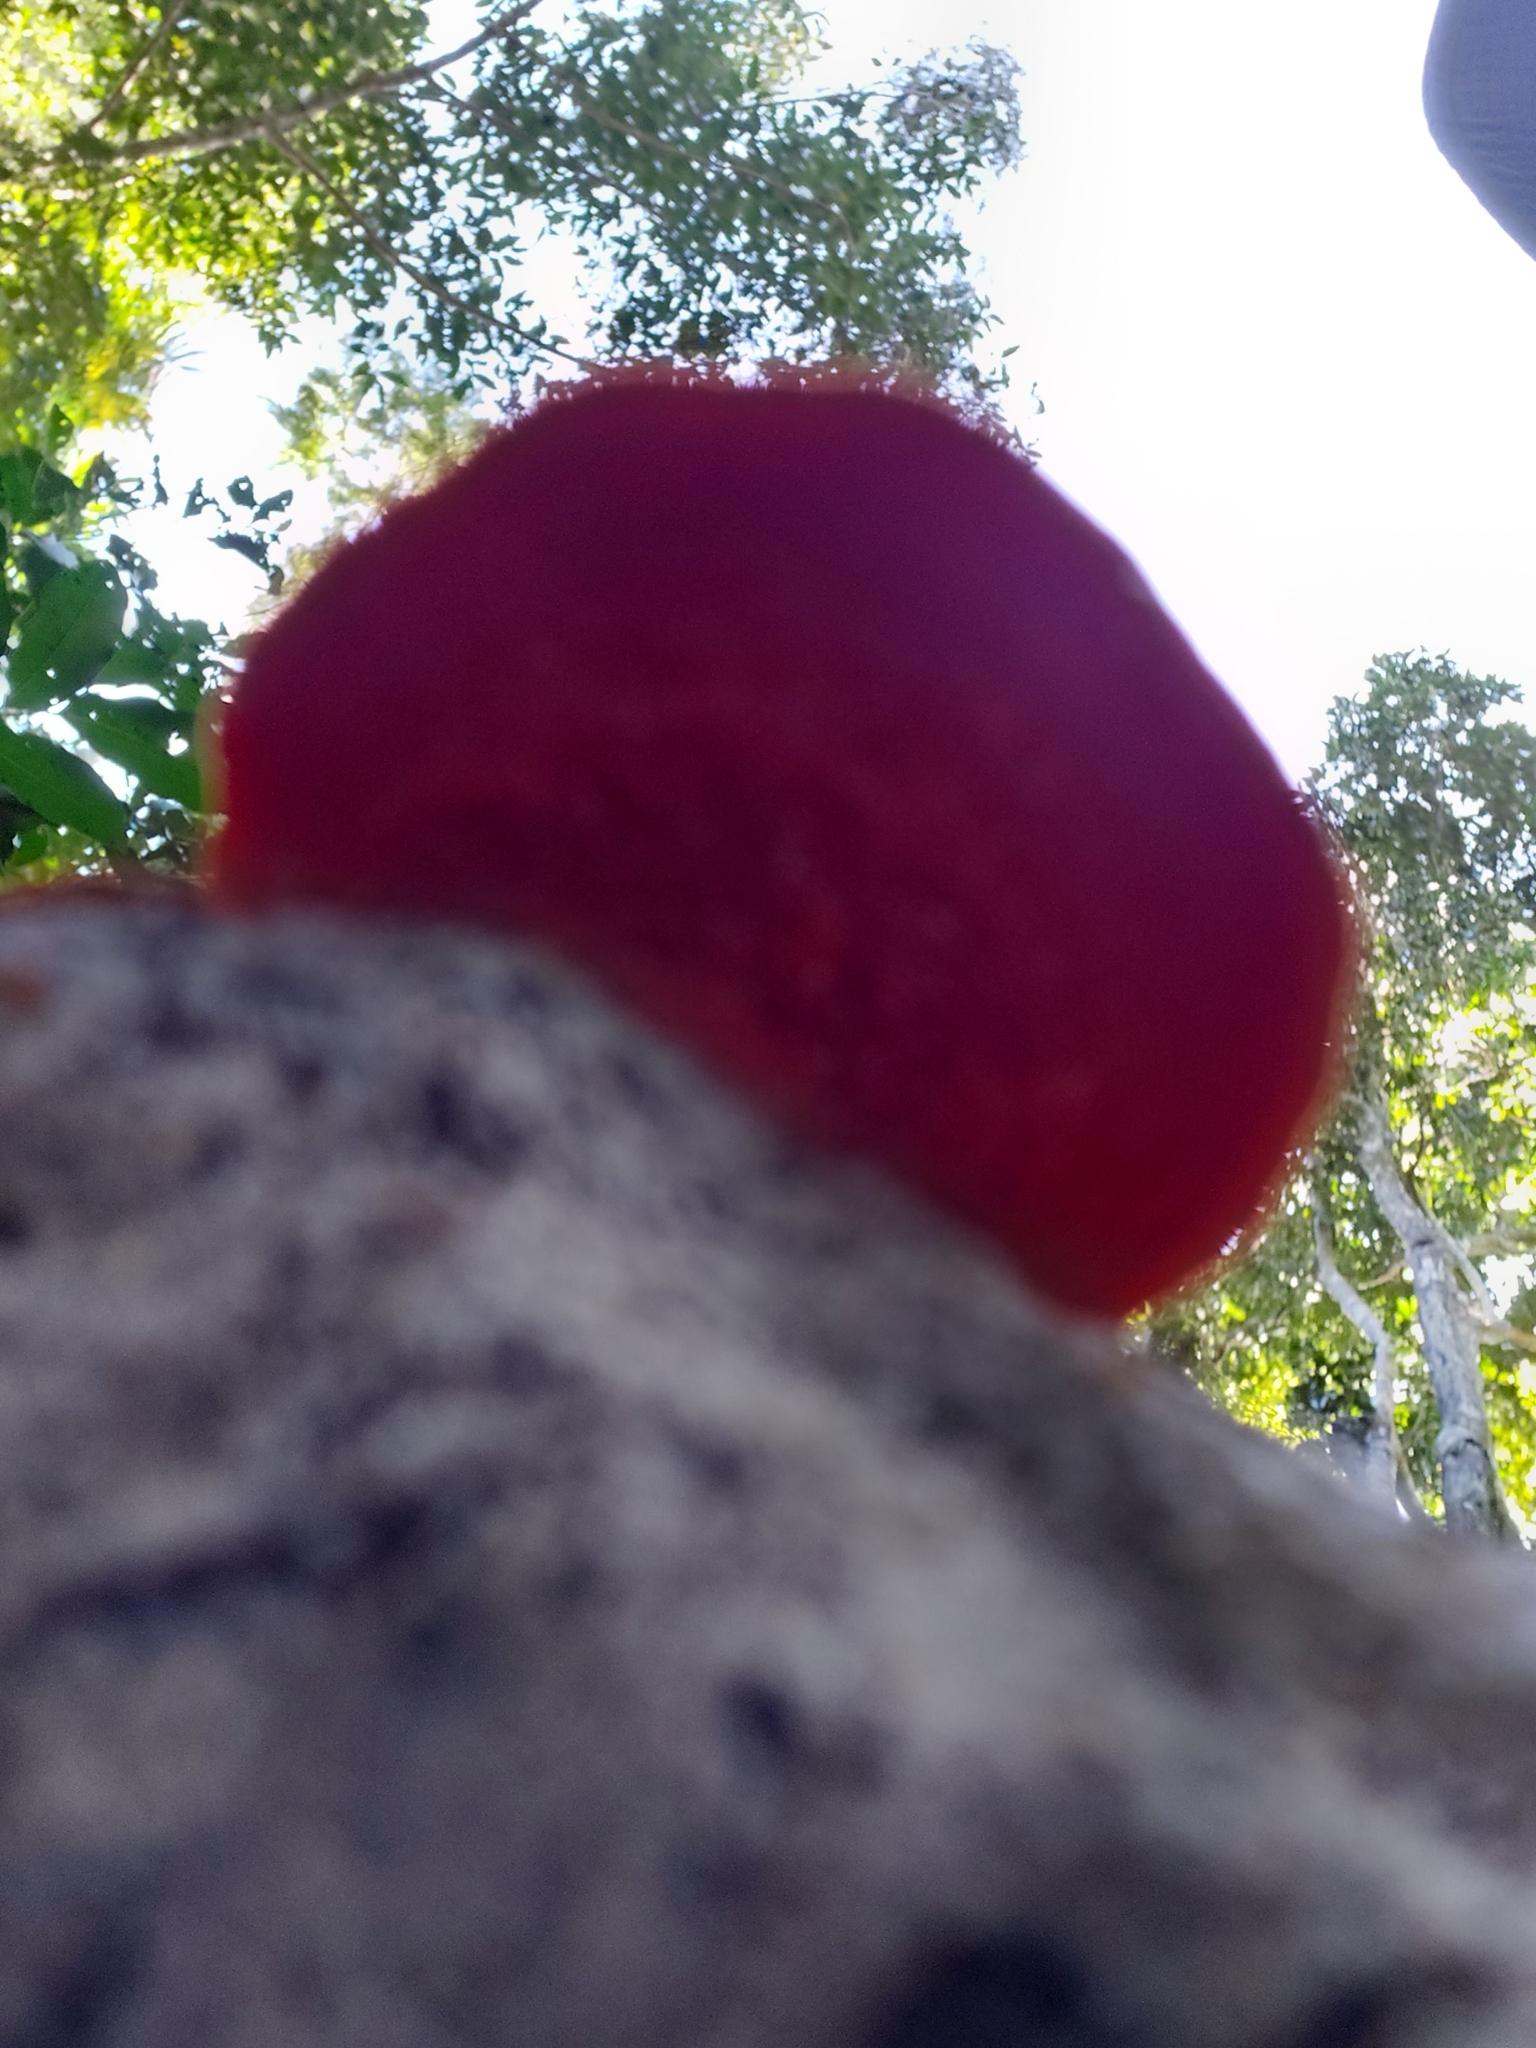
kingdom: Fungi
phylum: Basidiomycota
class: Agaricomycetes
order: Polyporales
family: Polyporaceae
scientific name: Polyporaceae
